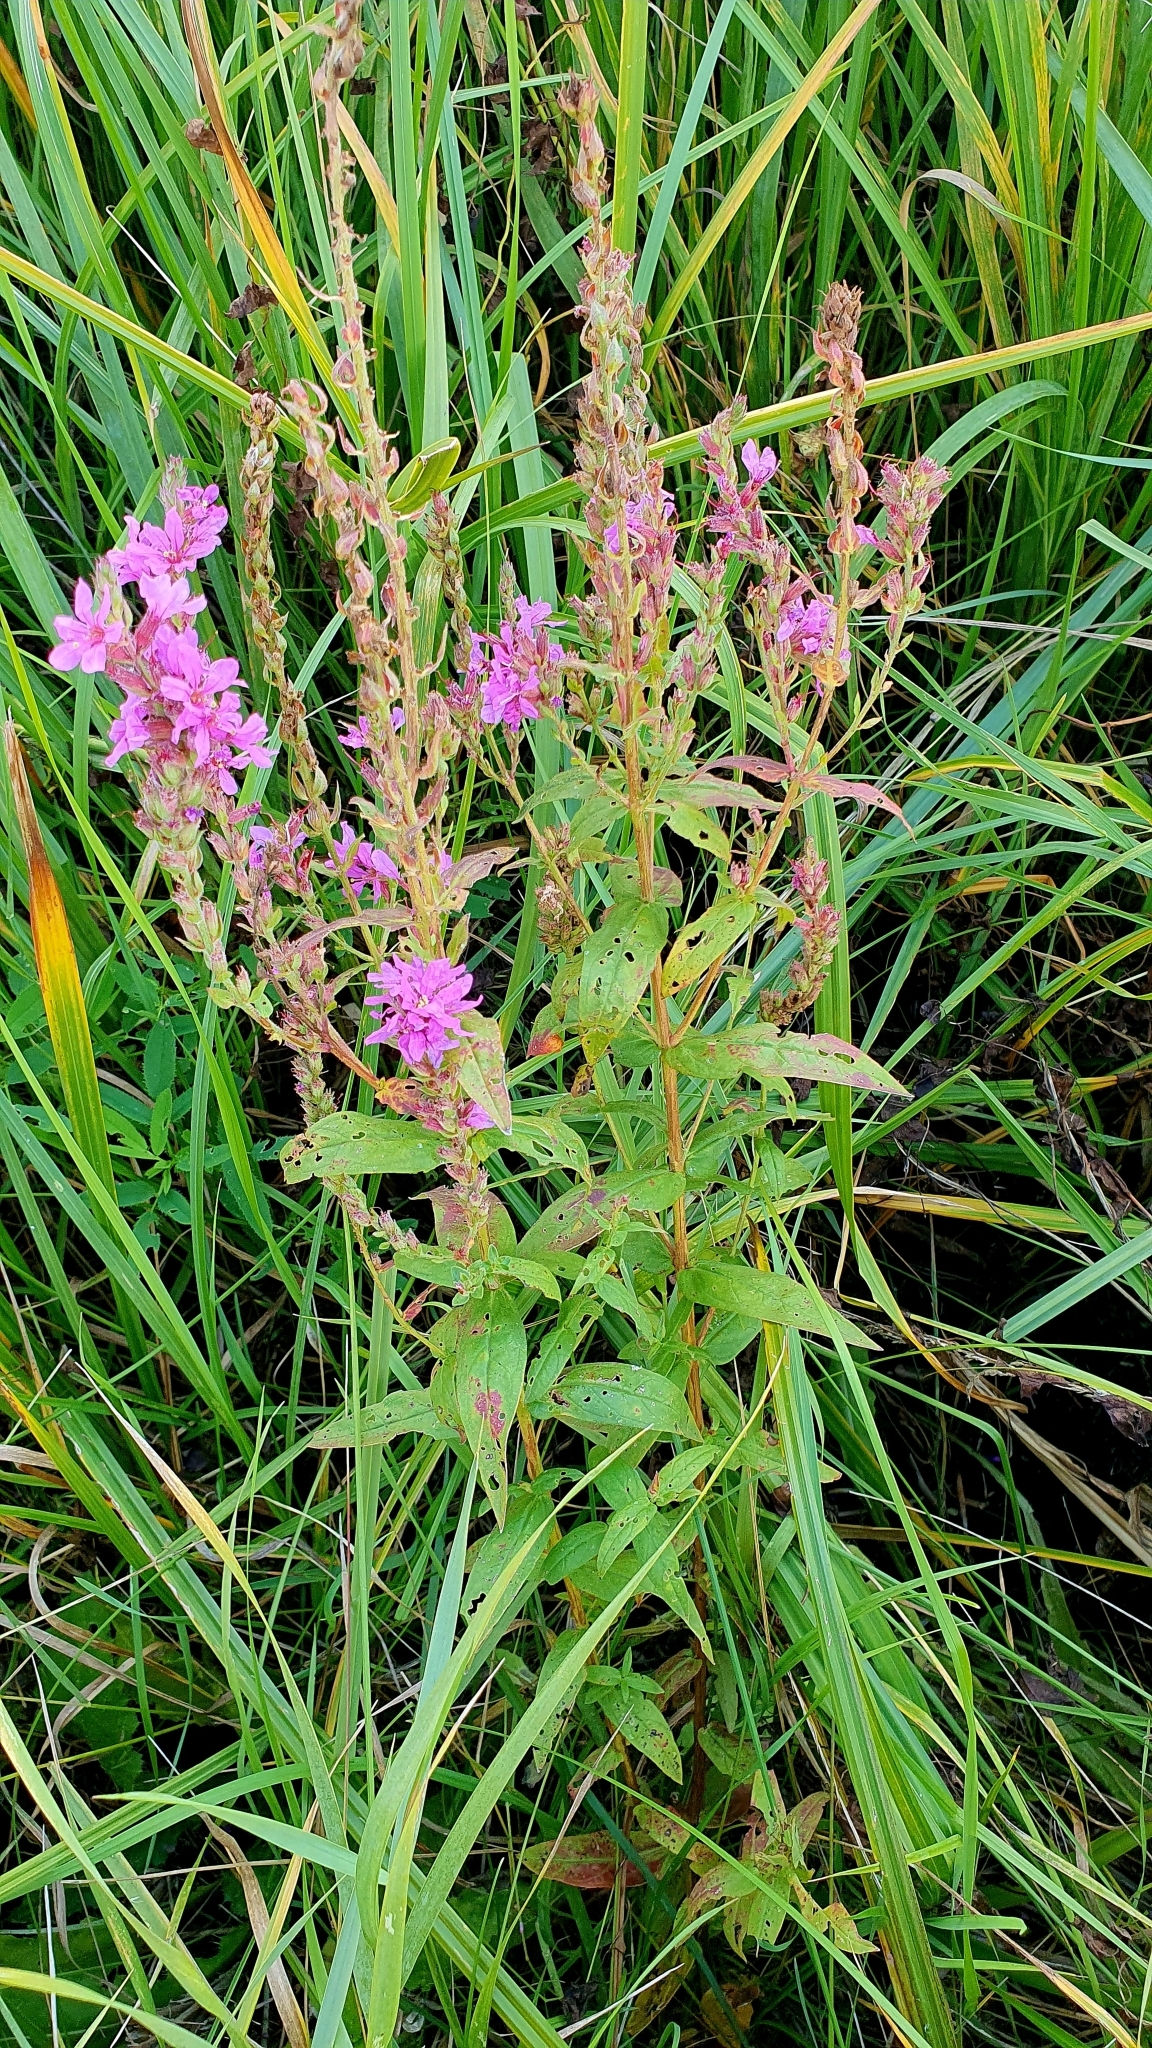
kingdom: Plantae
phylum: Tracheophyta
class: Magnoliopsida
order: Myrtales
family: Lythraceae
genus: Lythrum
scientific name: Lythrum salicaria
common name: Purple loosestrife
